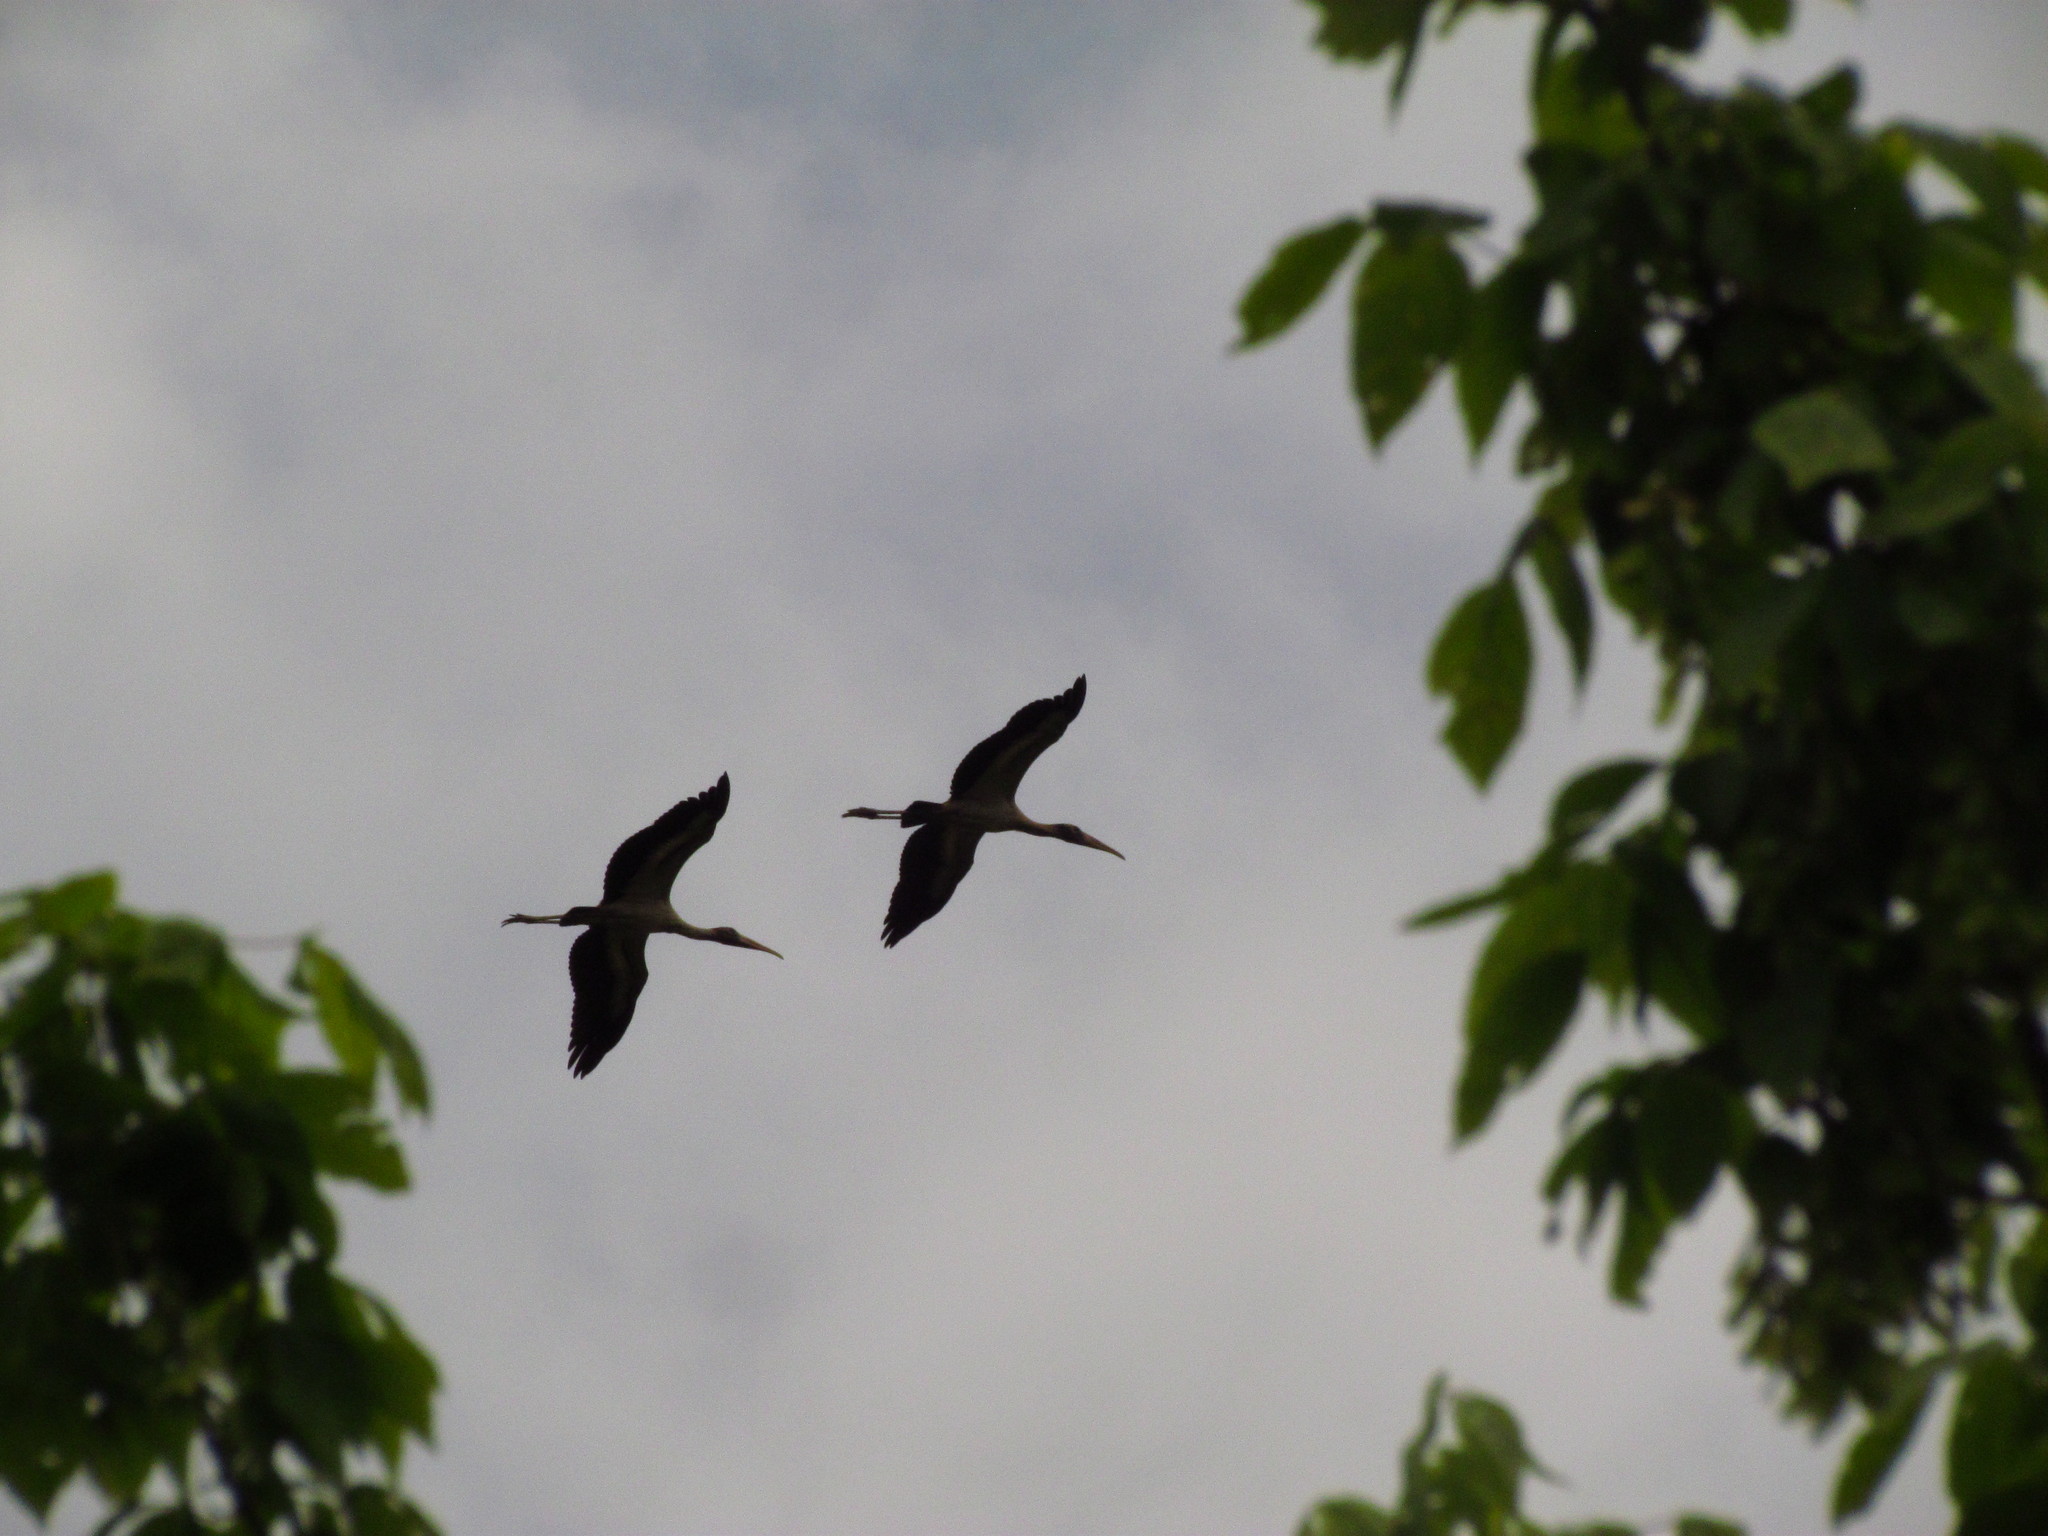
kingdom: Animalia
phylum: Chordata
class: Aves
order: Ciconiiformes
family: Ciconiidae
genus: Mycteria
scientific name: Mycteria americana
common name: Wood stork
